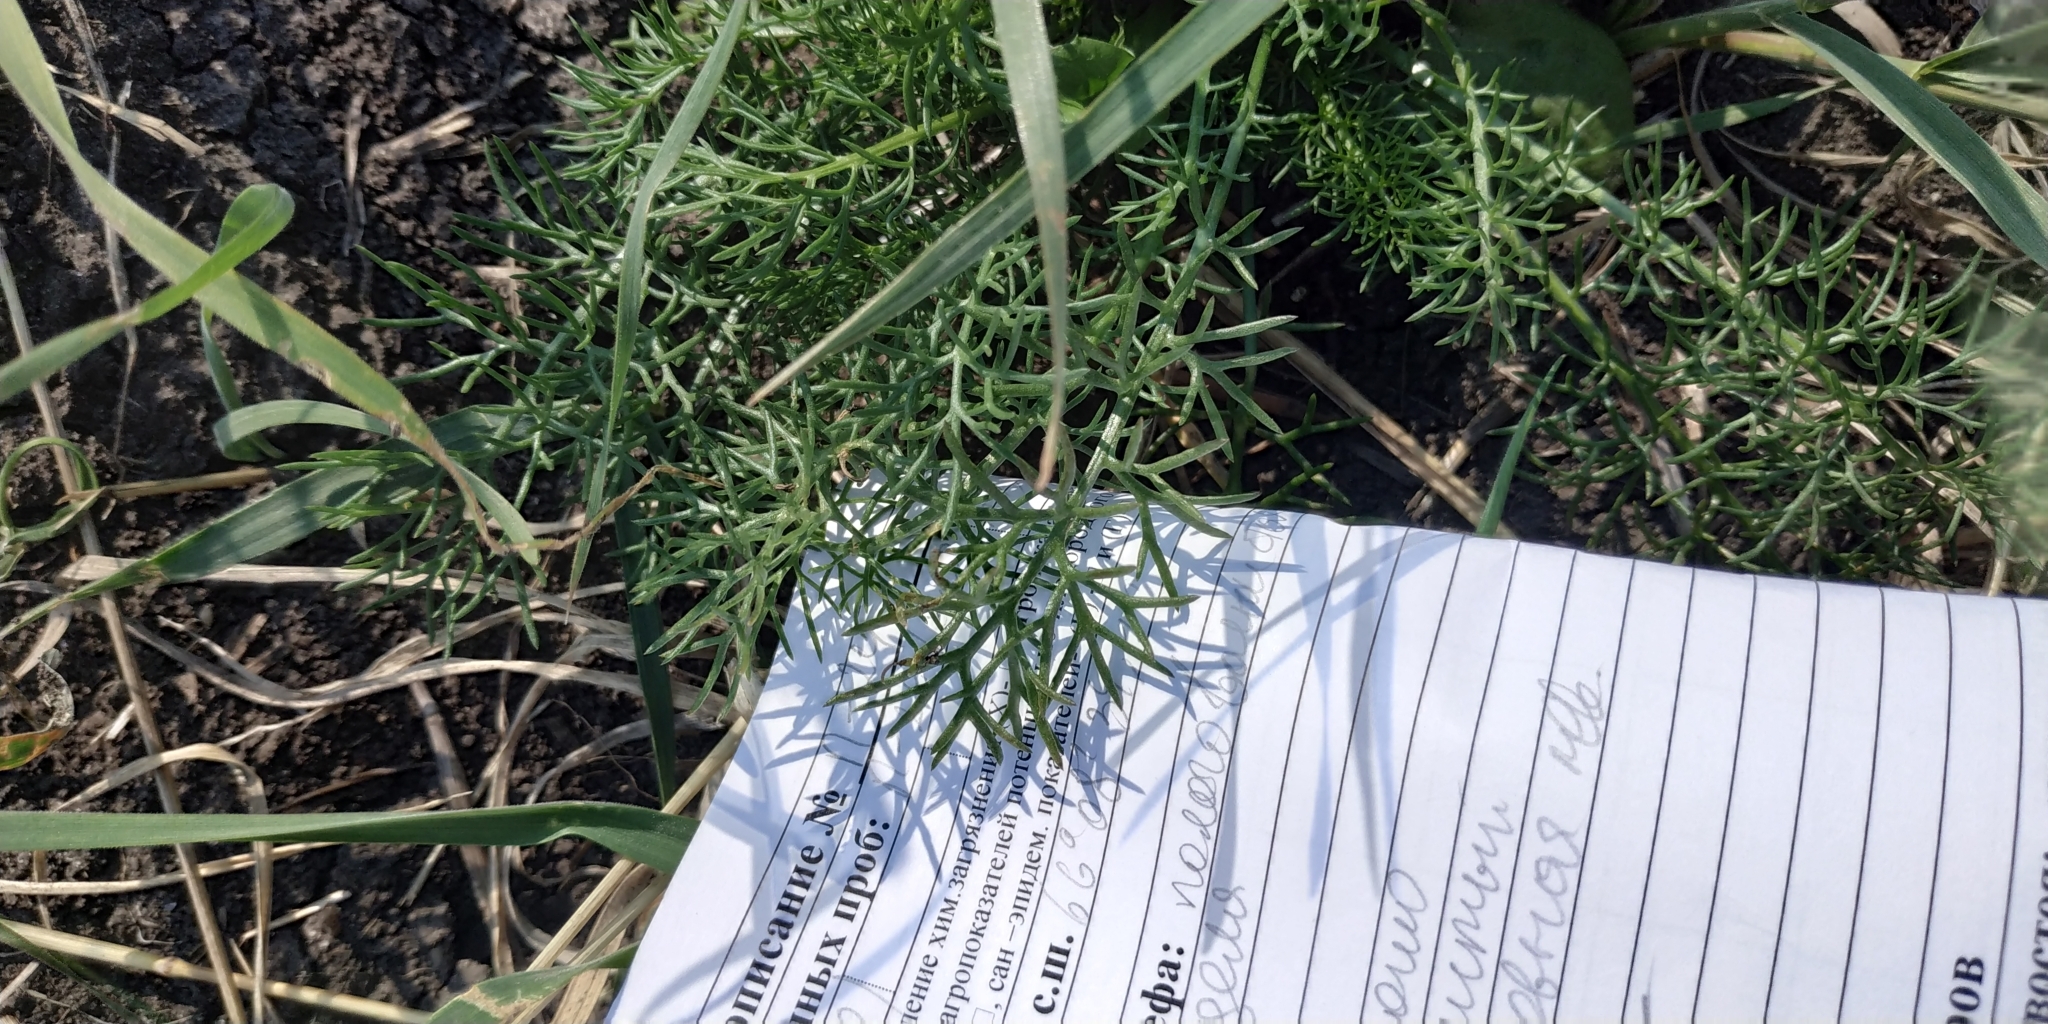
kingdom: Plantae
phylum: Tracheophyta
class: Magnoliopsida
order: Asterales
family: Asteraceae
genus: Tripleurospermum
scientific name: Tripleurospermum inodorum
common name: Scentless mayweed
